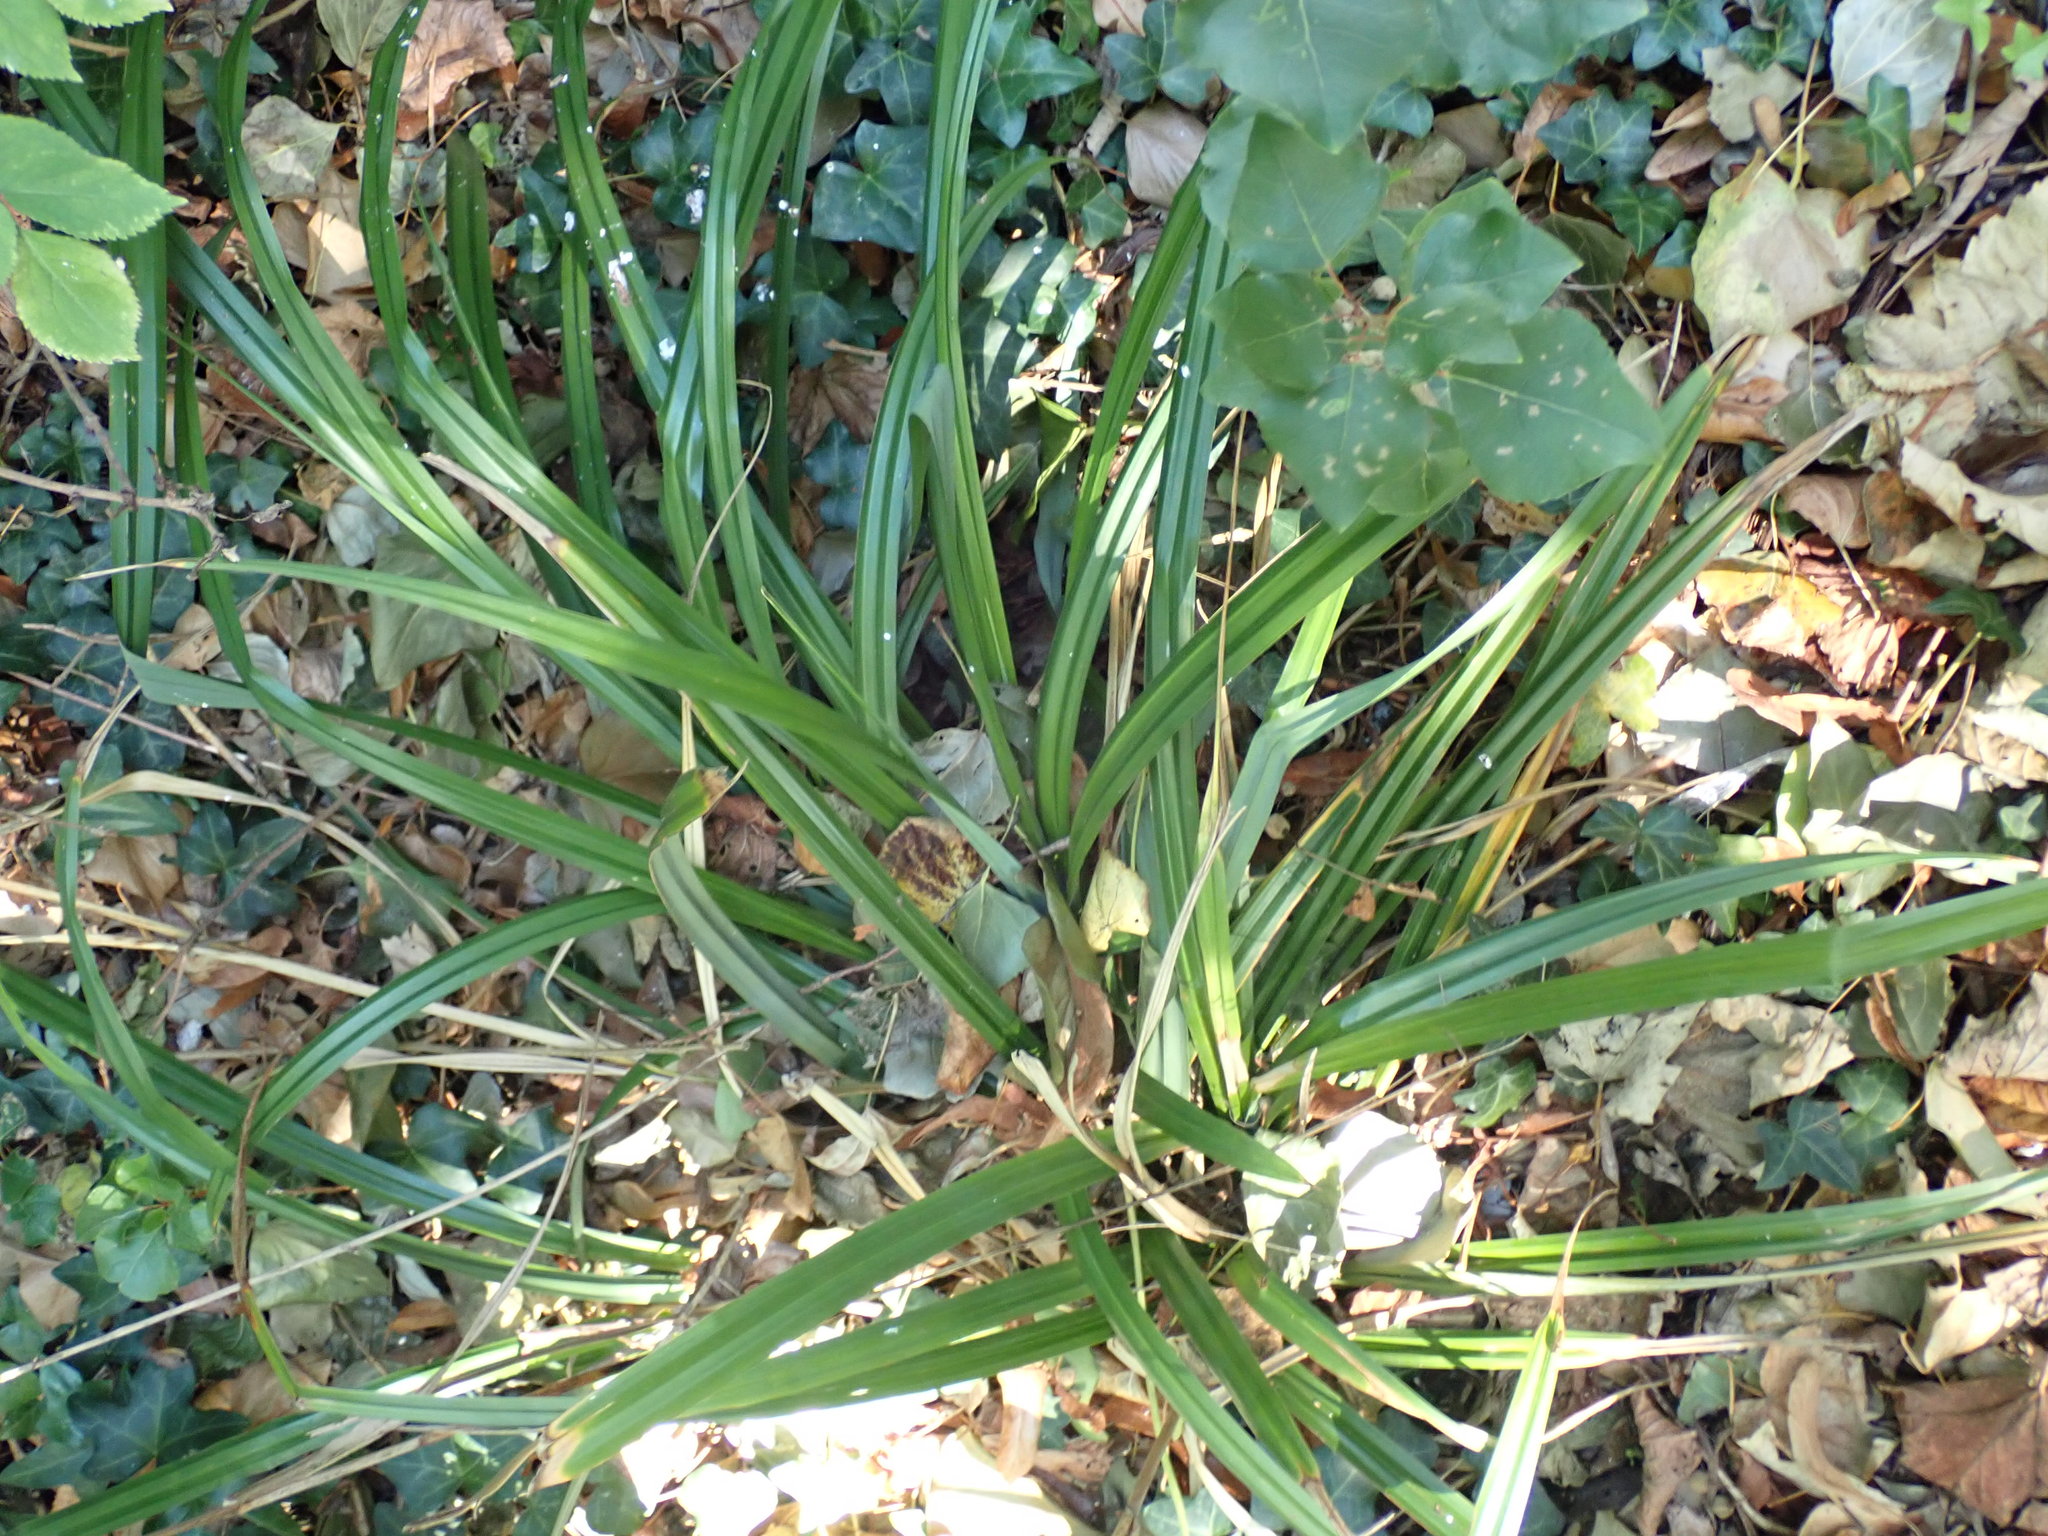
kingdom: Plantae
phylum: Tracheophyta
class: Liliopsida
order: Poales
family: Cyperaceae
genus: Carex
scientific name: Carex pendula
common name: Pendulous sedge
